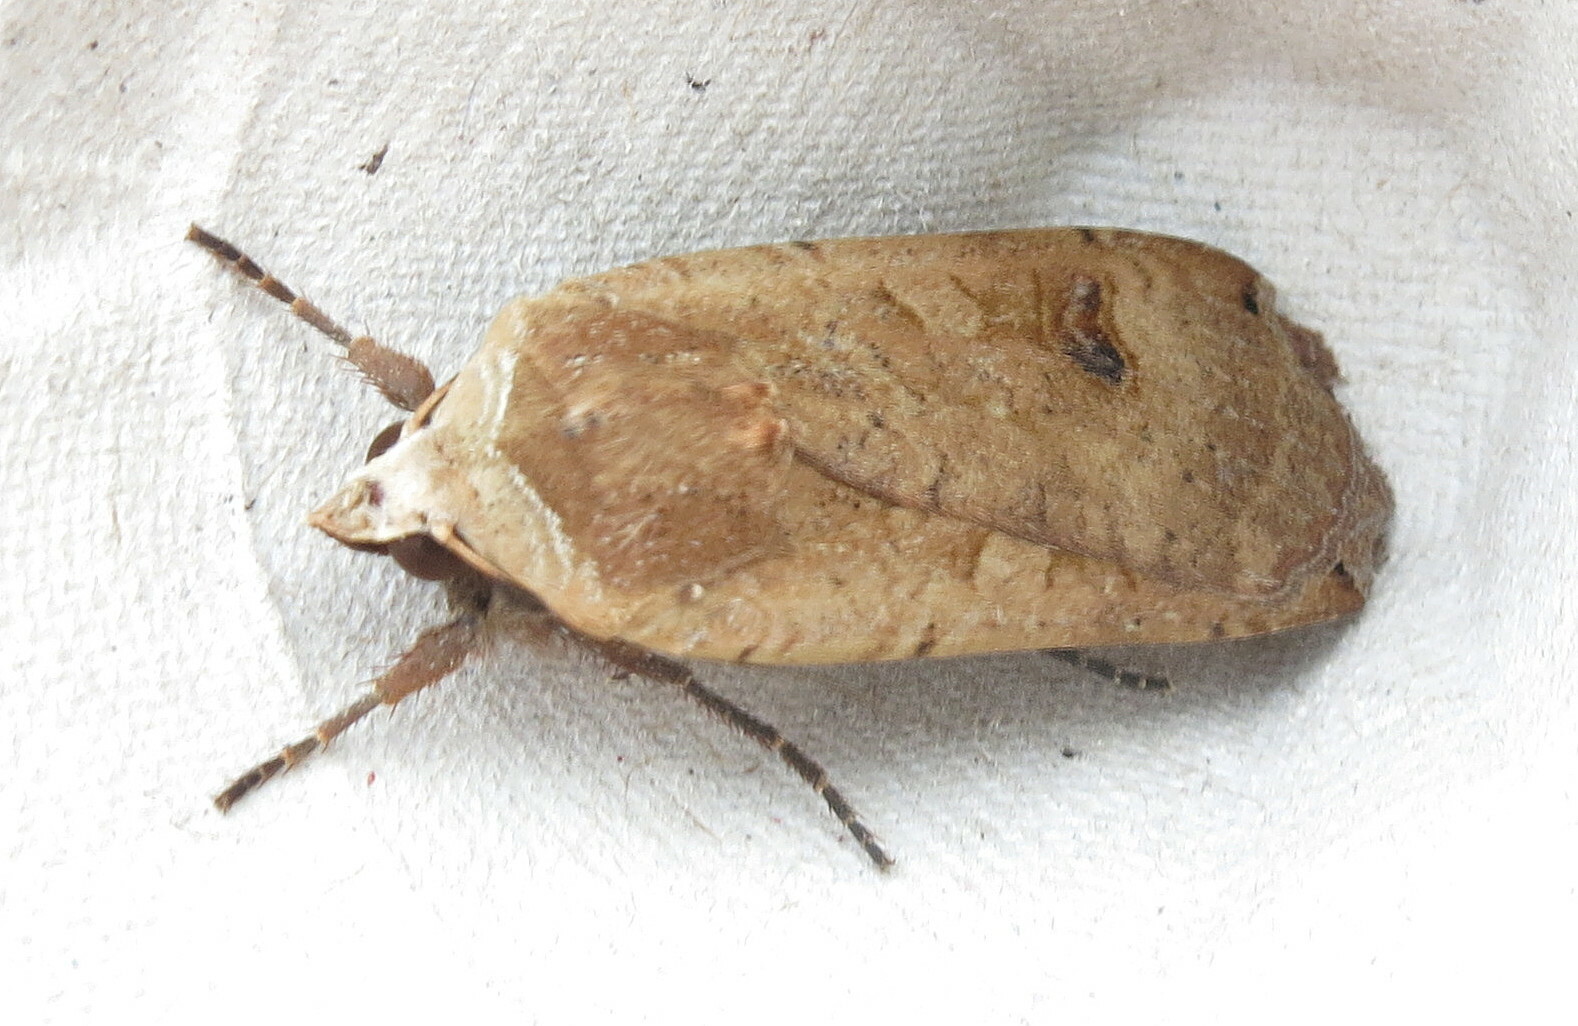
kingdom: Animalia
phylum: Arthropoda
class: Insecta
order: Lepidoptera
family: Noctuidae
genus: Noctua
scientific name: Noctua pronuba
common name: Large yellow underwing
